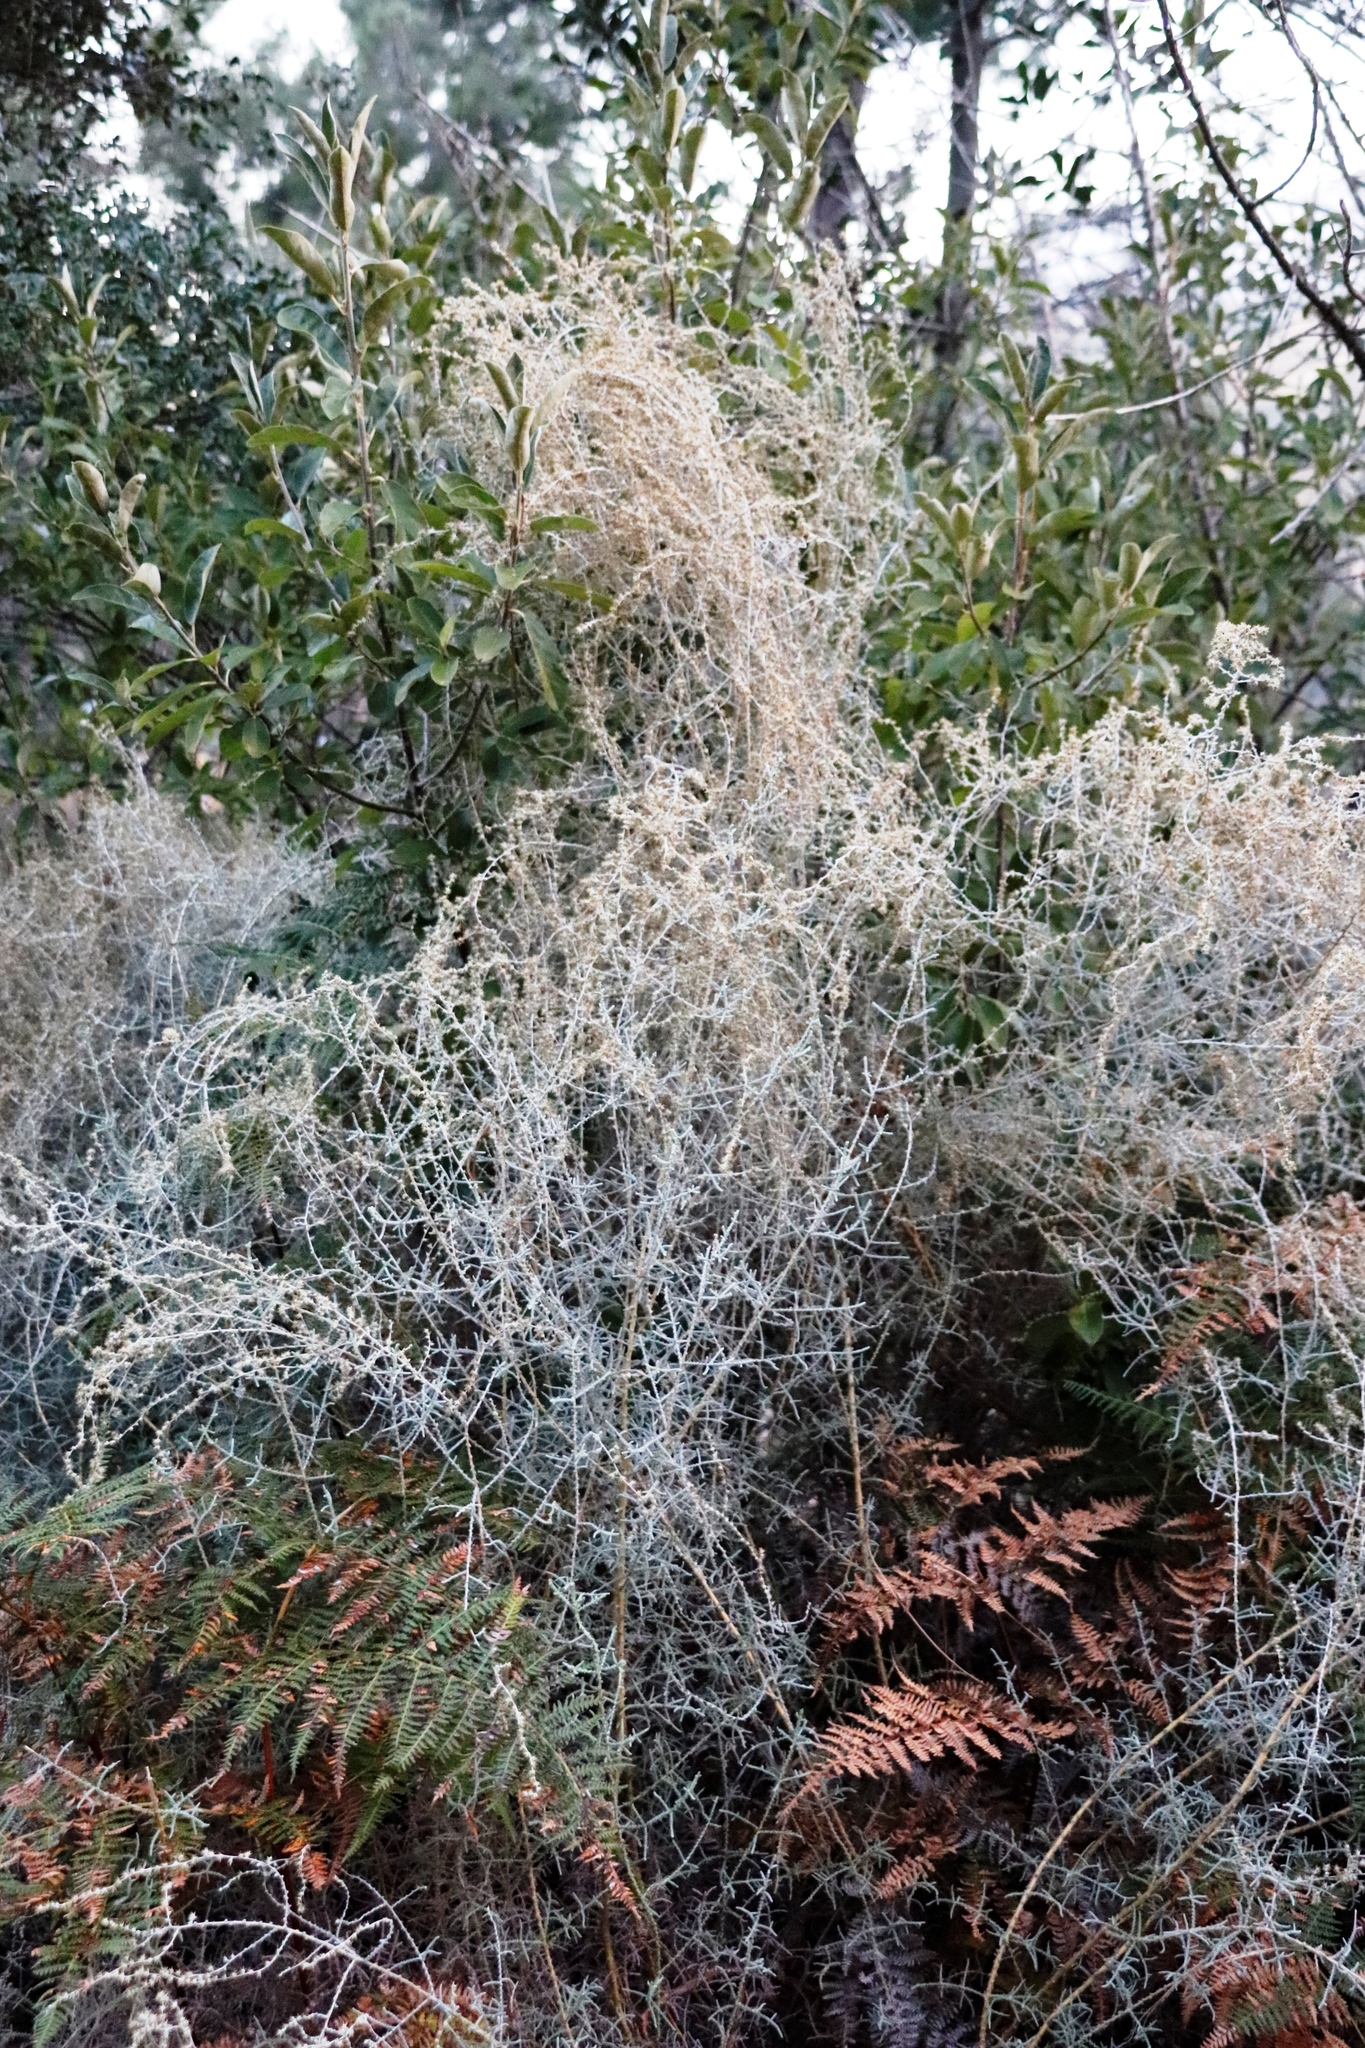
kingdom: Plantae
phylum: Tracheophyta
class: Magnoliopsida
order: Asterales
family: Asteraceae
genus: Seriphium
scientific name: Seriphium plumosum
